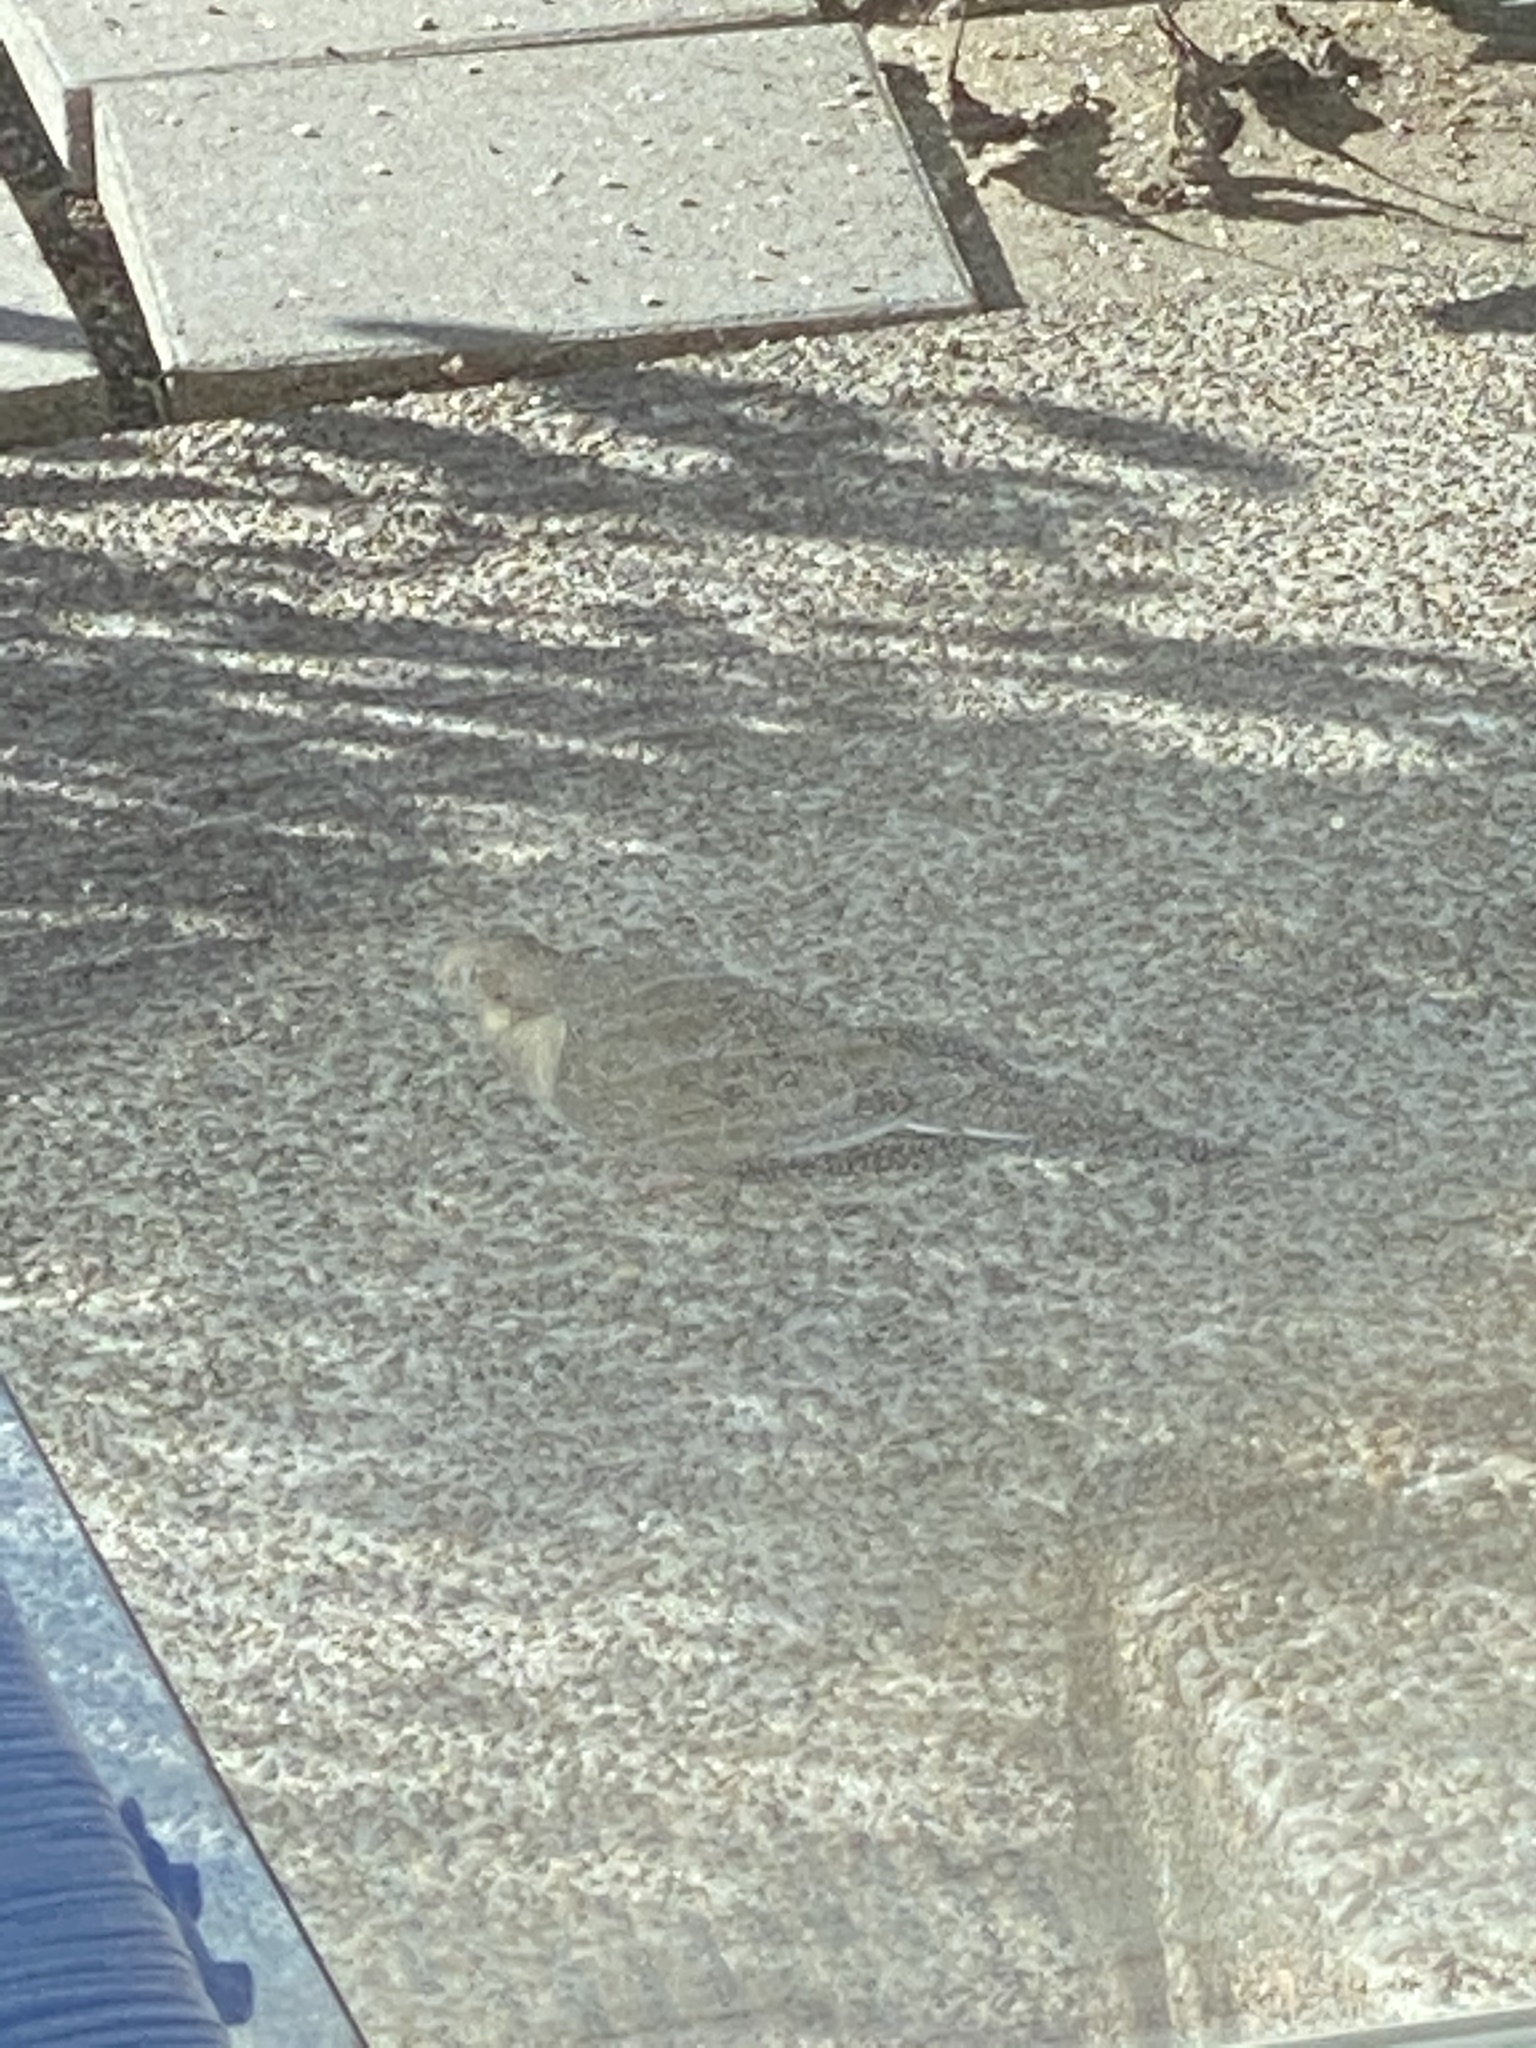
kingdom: Animalia
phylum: Chordata
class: Aves
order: Columbiformes
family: Columbidae
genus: Zenaida
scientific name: Zenaida macroura
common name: Mourning dove
